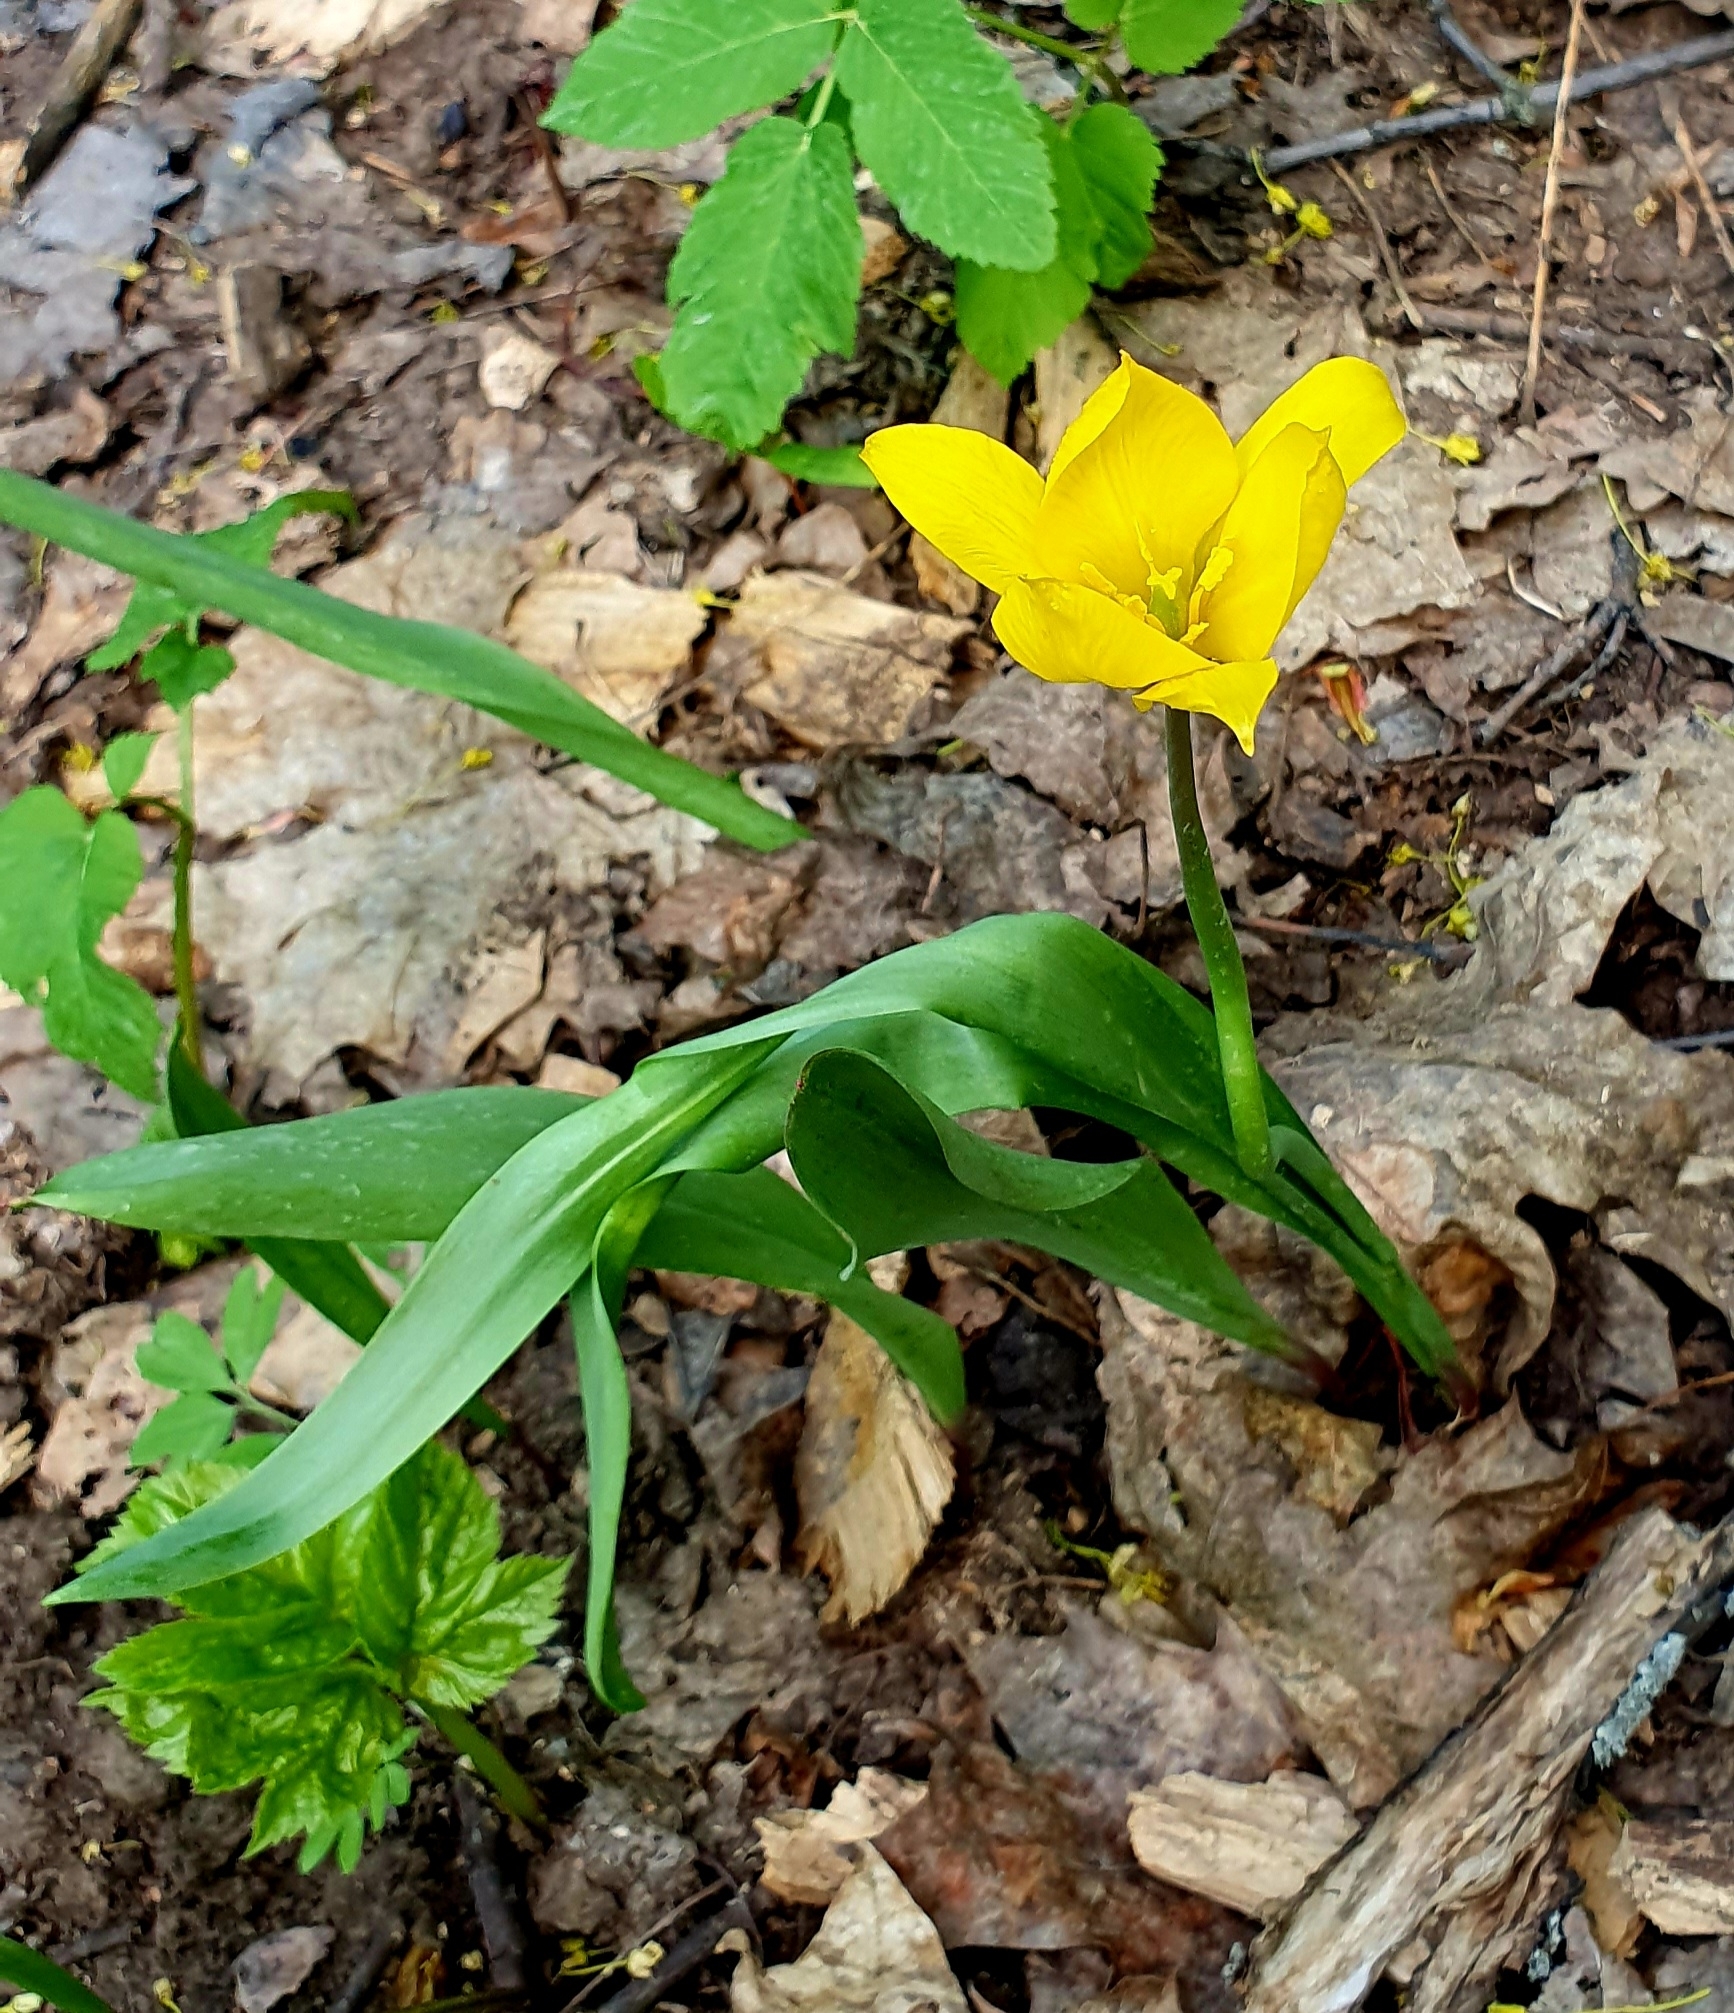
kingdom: Plantae
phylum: Tracheophyta
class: Liliopsida
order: Liliales
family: Liliaceae
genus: Tulipa
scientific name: Tulipa sylvestris
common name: Wild tulip
